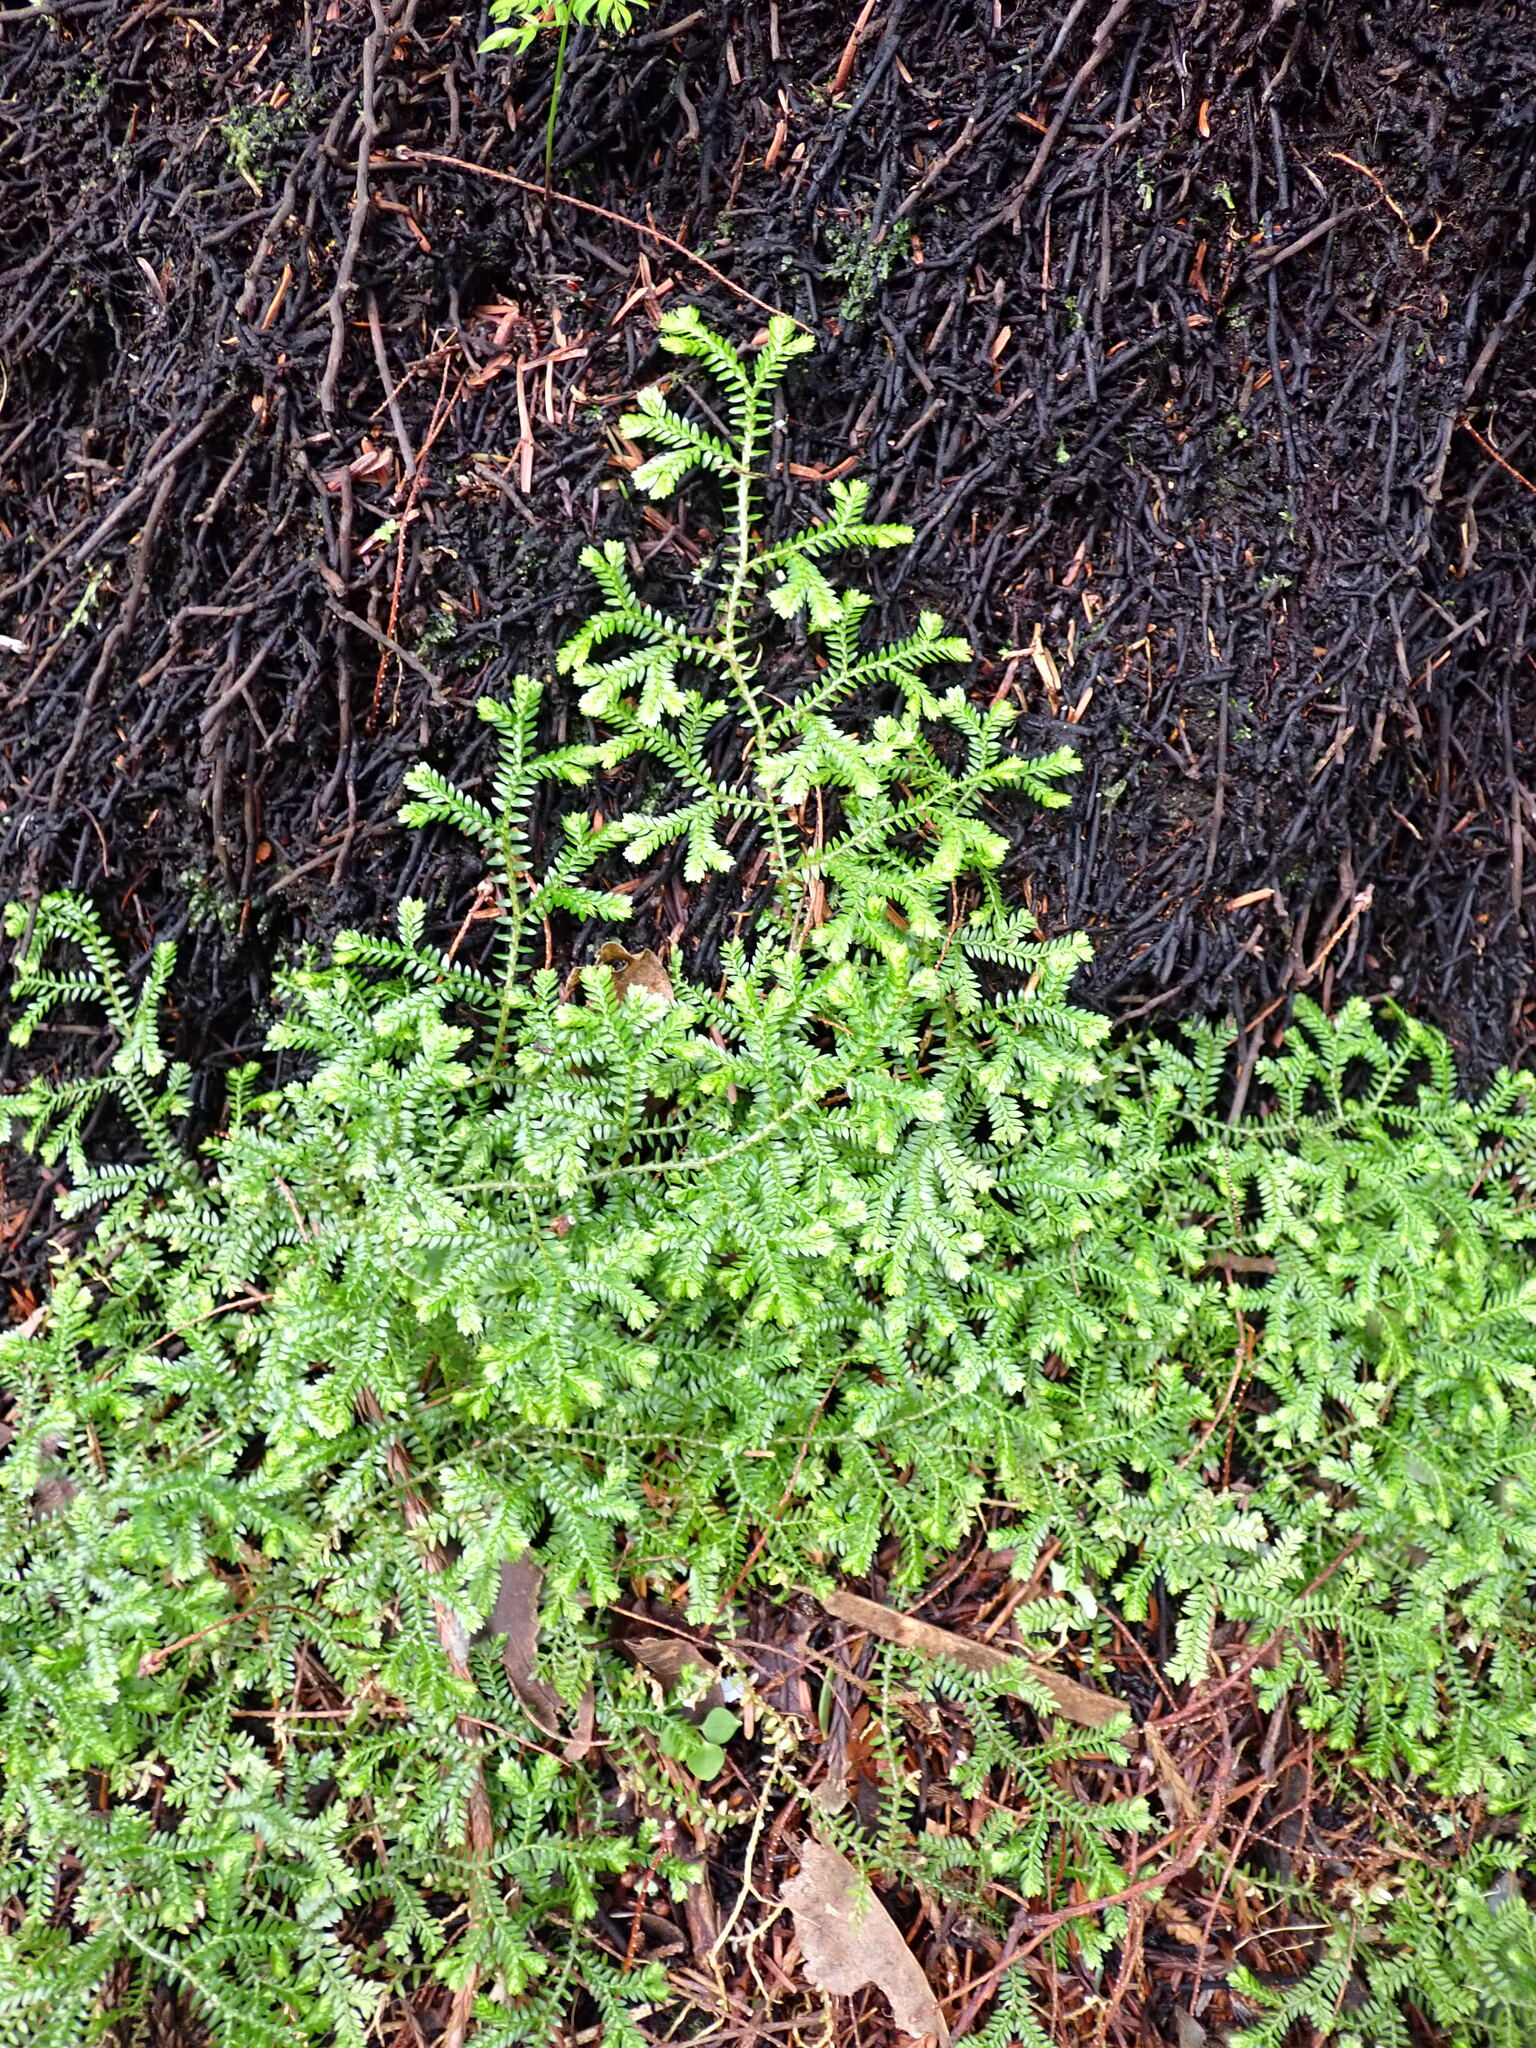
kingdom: Plantae
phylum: Tracheophyta
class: Lycopodiopsida
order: Selaginellales
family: Selaginellaceae
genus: Selaginella
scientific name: Selaginella kraussiana
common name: Krauss' spikemoss
